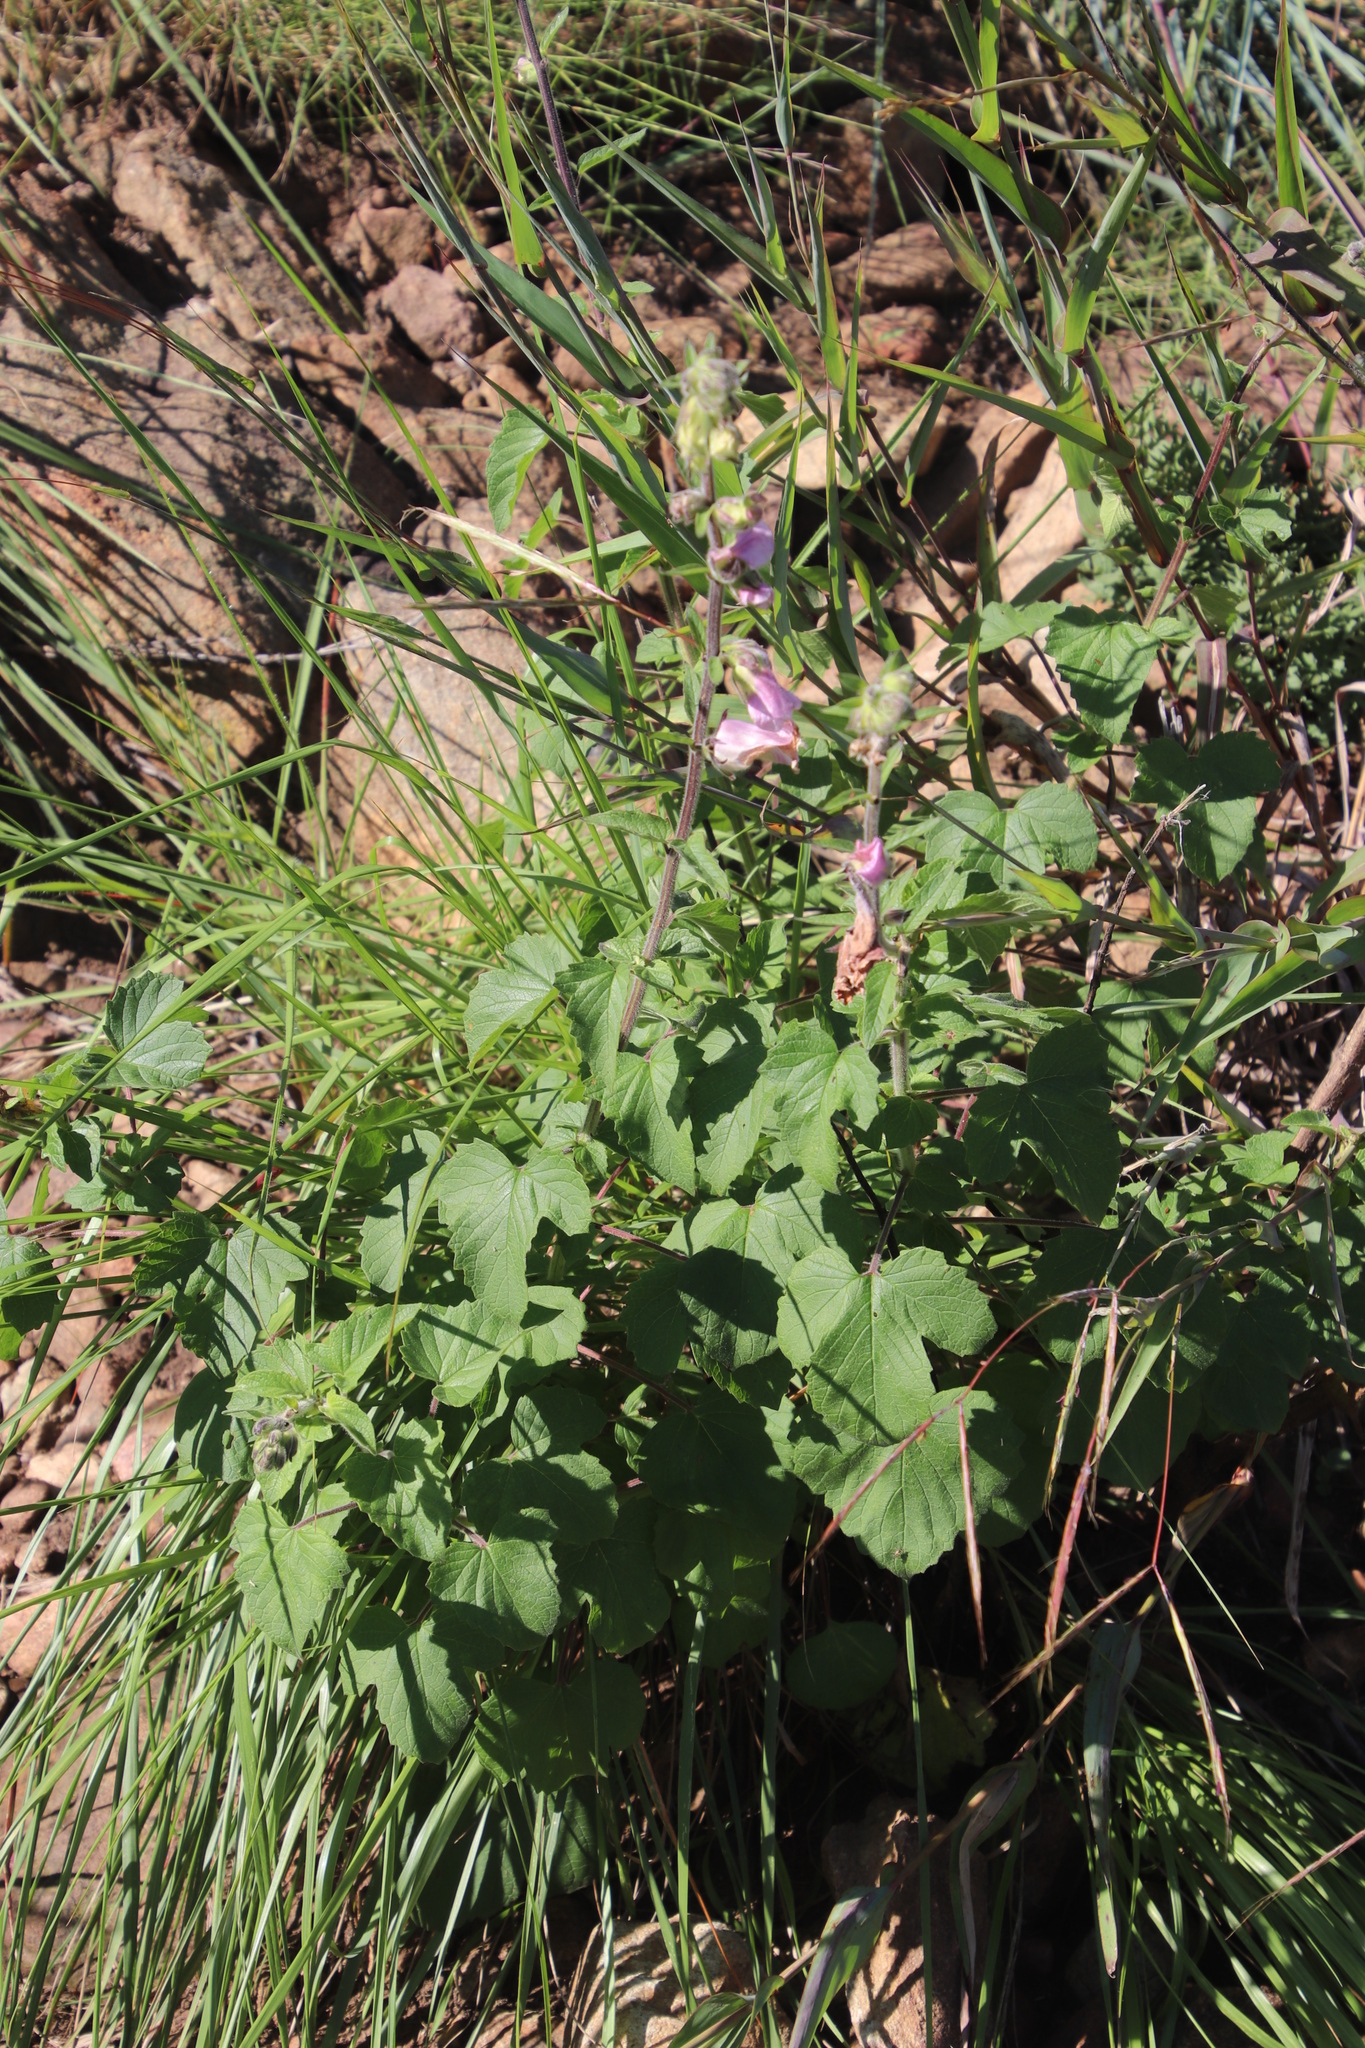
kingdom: Plantae
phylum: Tracheophyta
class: Magnoliopsida
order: Lamiales
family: Pedaliaceae
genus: Sesamum
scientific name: Sesamum trilobum
